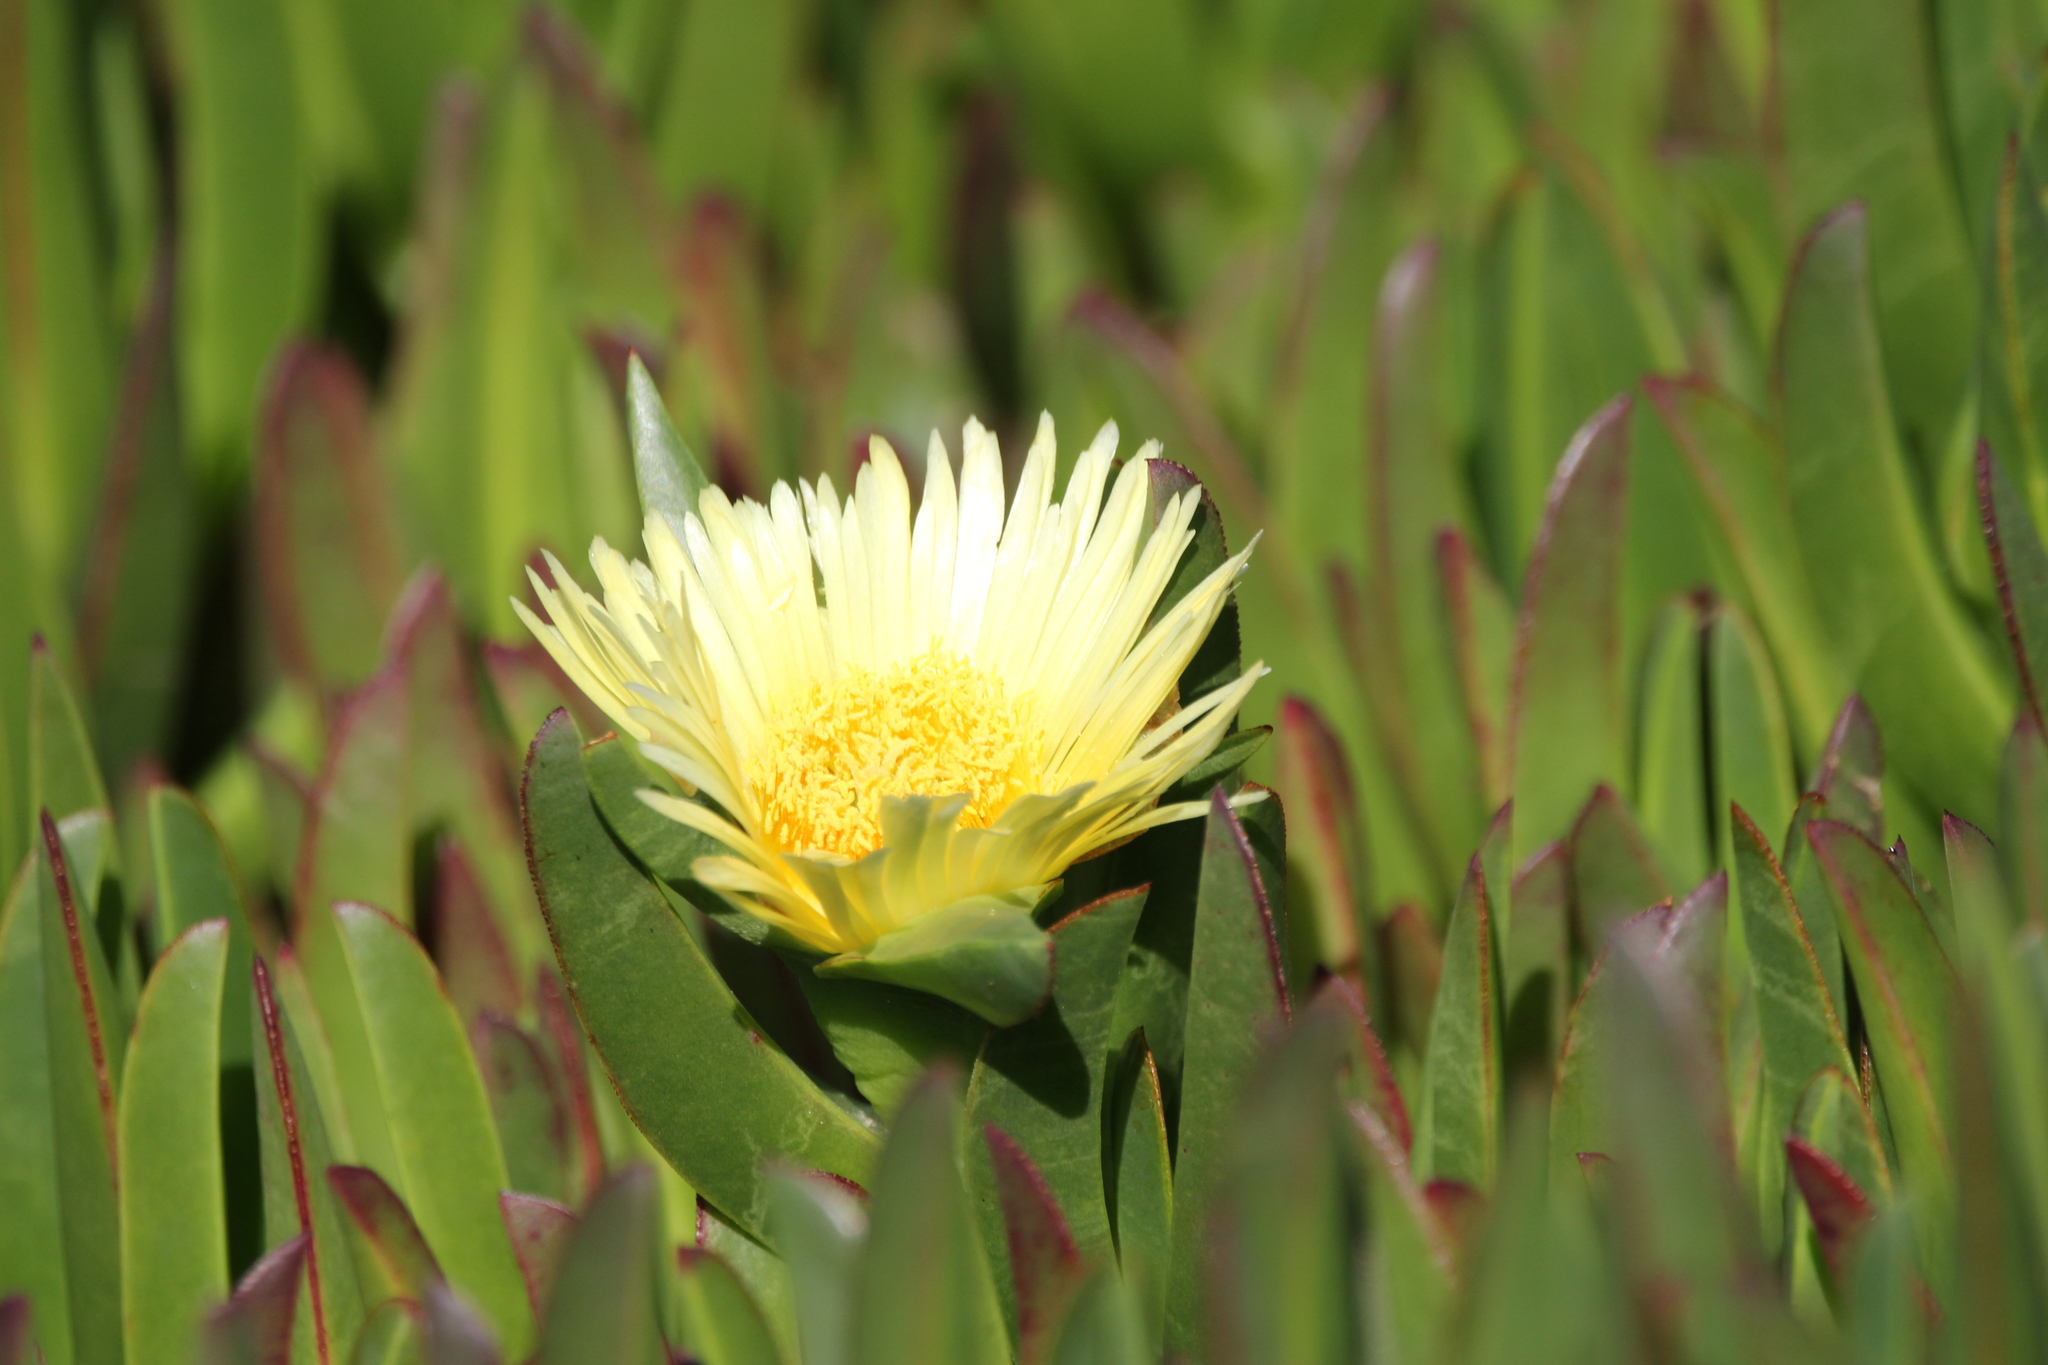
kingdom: Plantae
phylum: Tracheophyta
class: Magnoliopsida
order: Caryophyllales
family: Aizoaceae
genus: Carpobrotus
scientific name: Carpobrotus edulis
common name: Hottentot-fig
